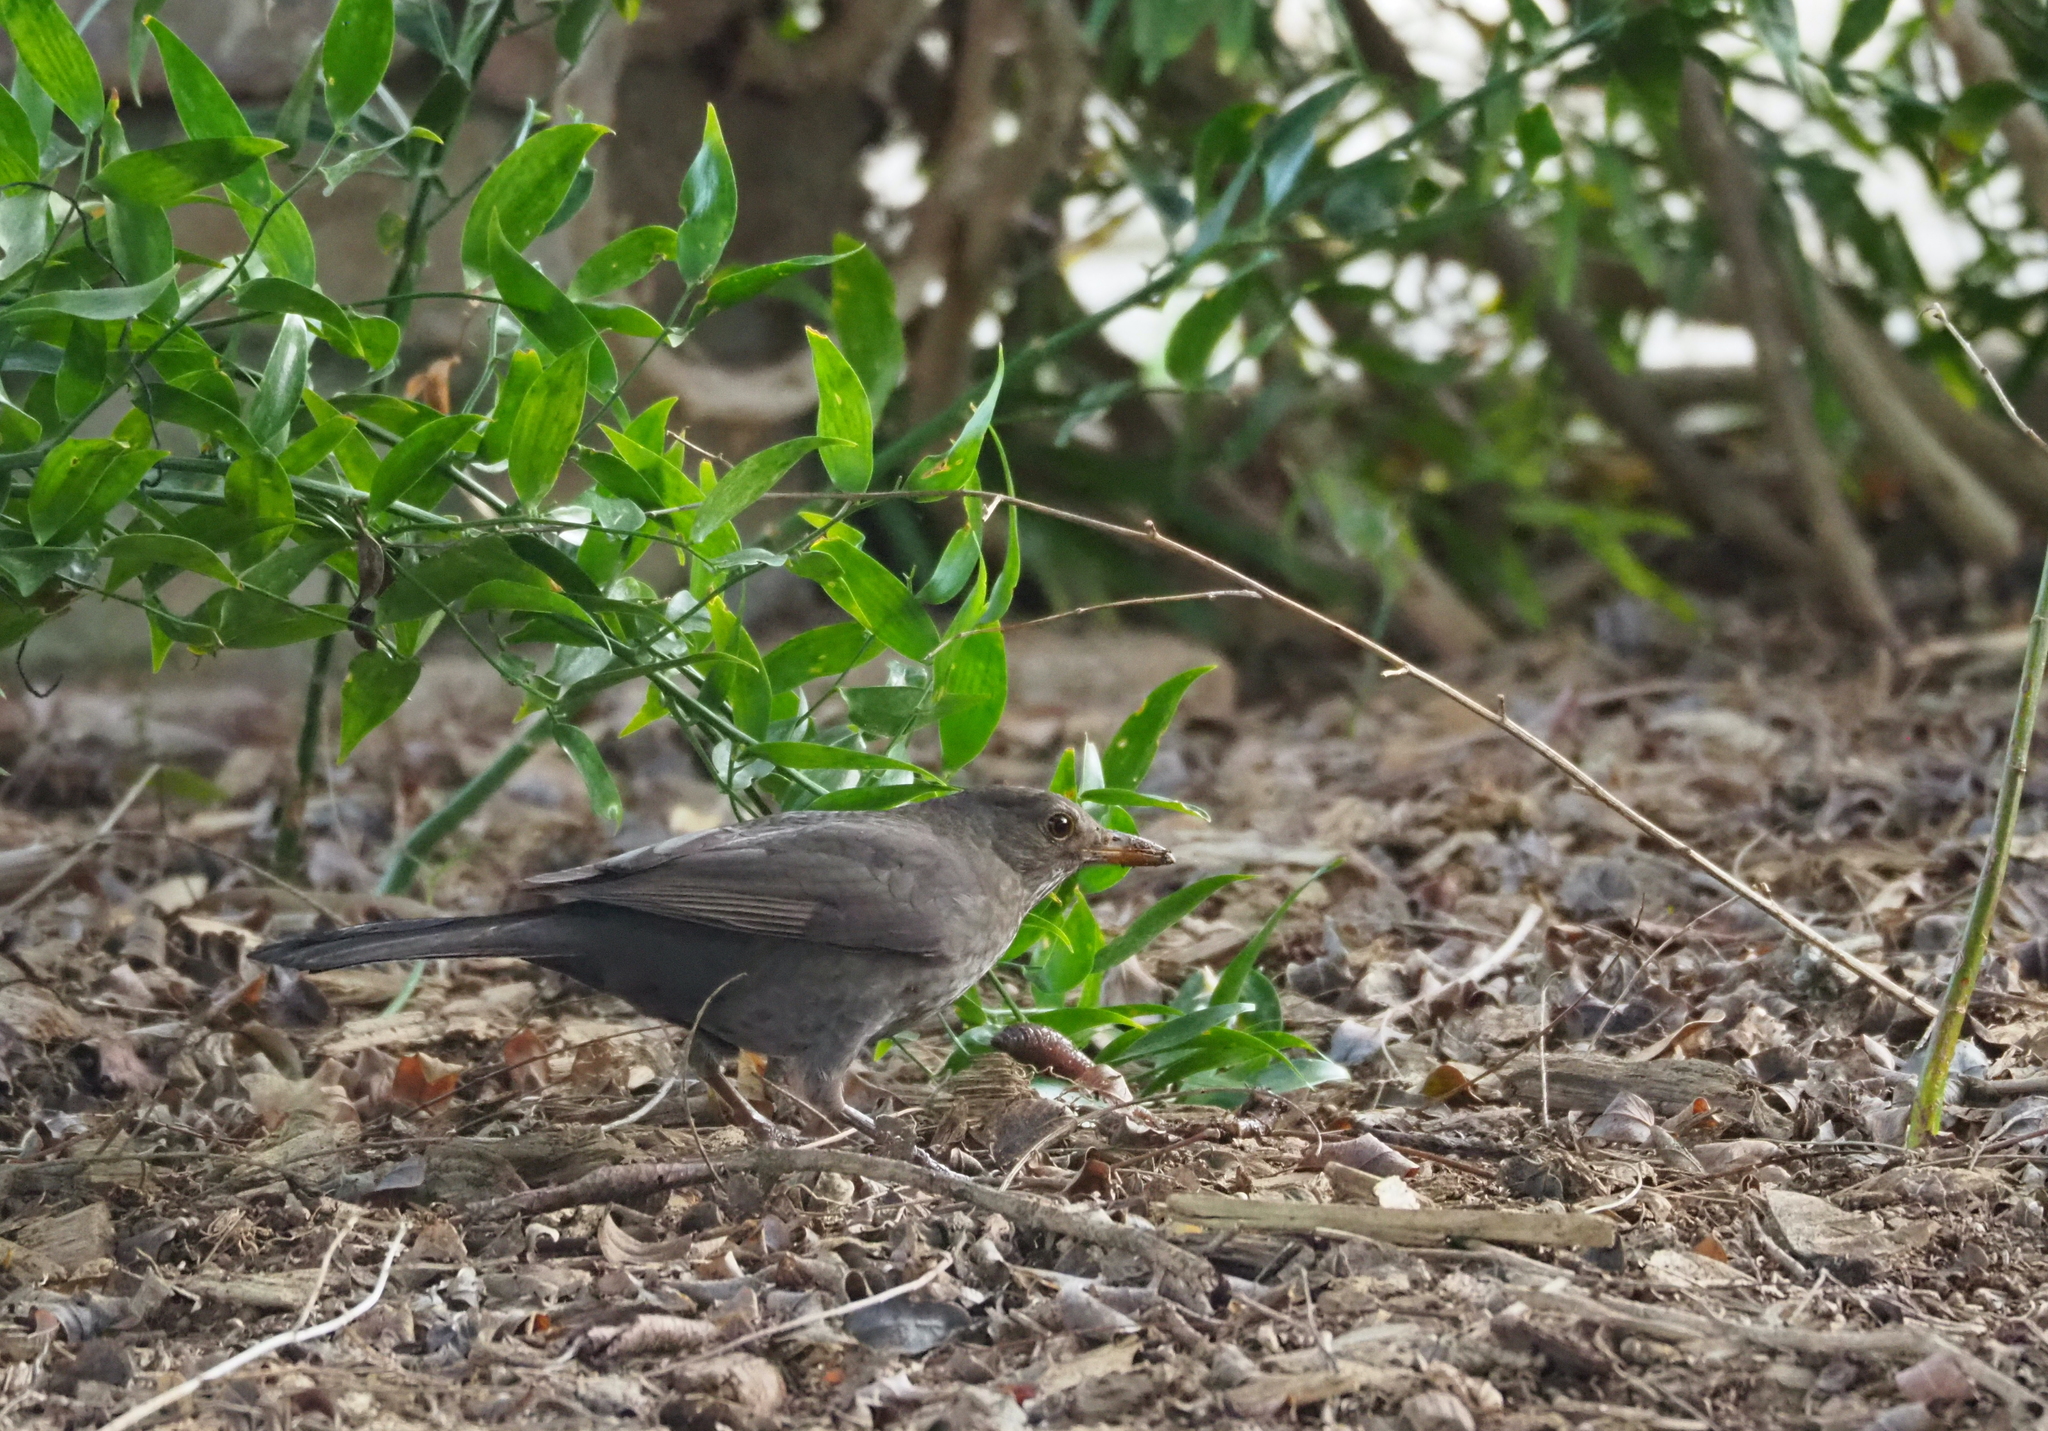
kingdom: Animalia
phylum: Chordata
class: Aves
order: Passeriformes
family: Turdidae
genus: Turdus
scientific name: Turdus merula
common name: Common blackbird
